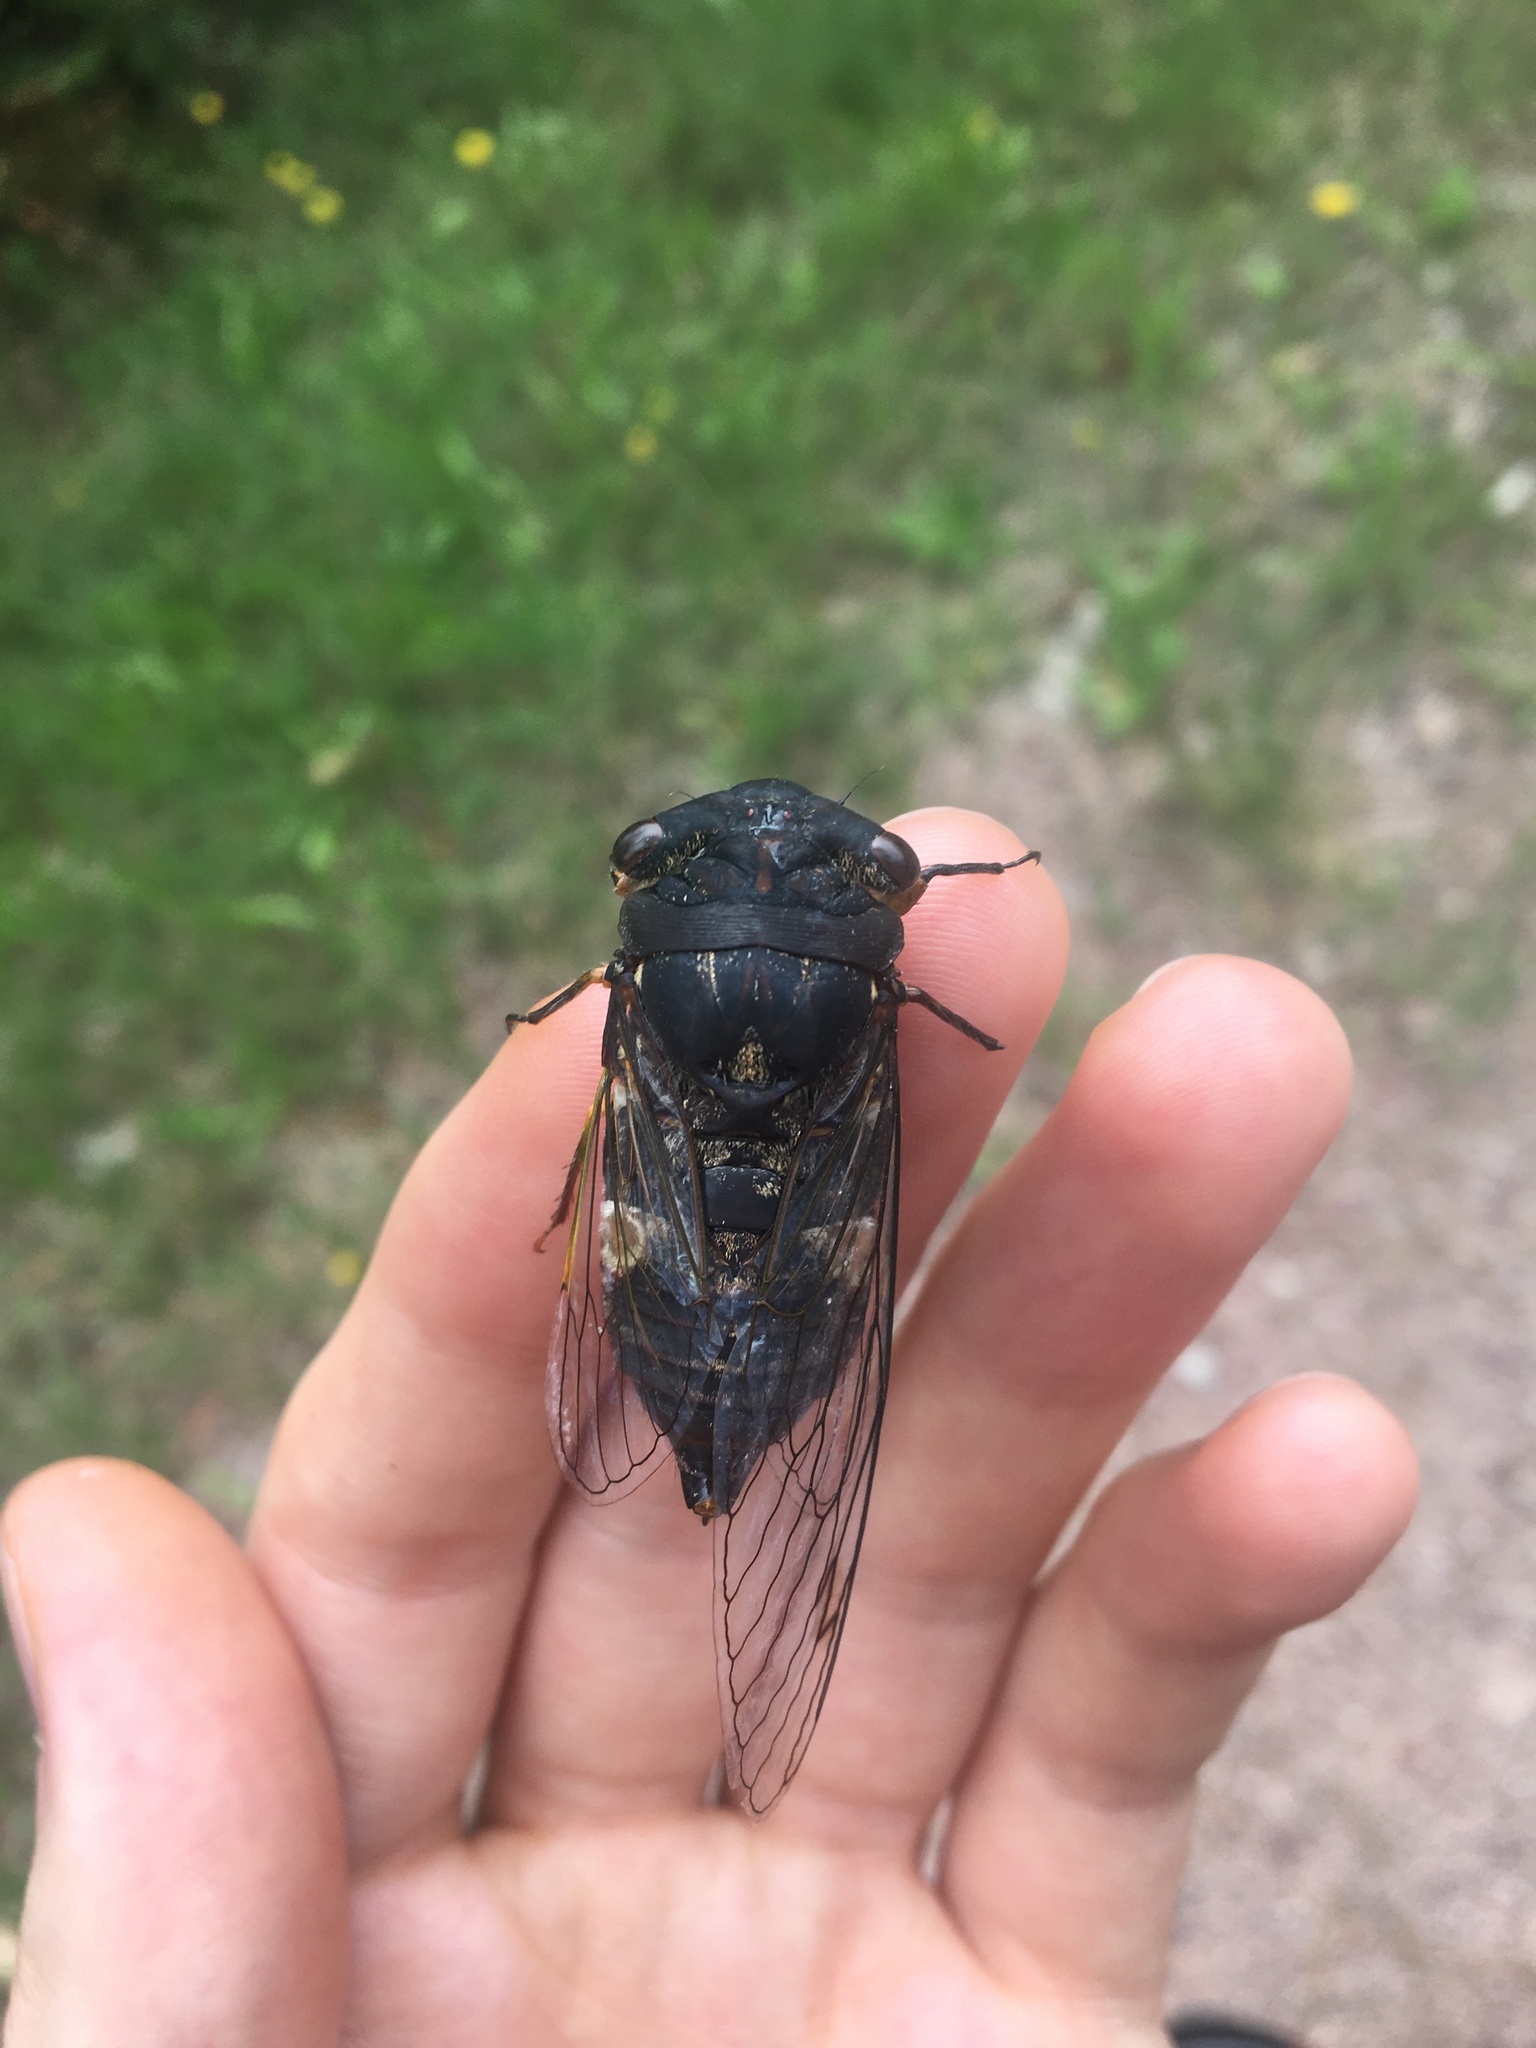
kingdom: Animalia
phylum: Arthropoda
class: Insecta
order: Hemiptera
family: Cicadidae
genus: Psaltoda
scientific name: Psaltoda plaga
